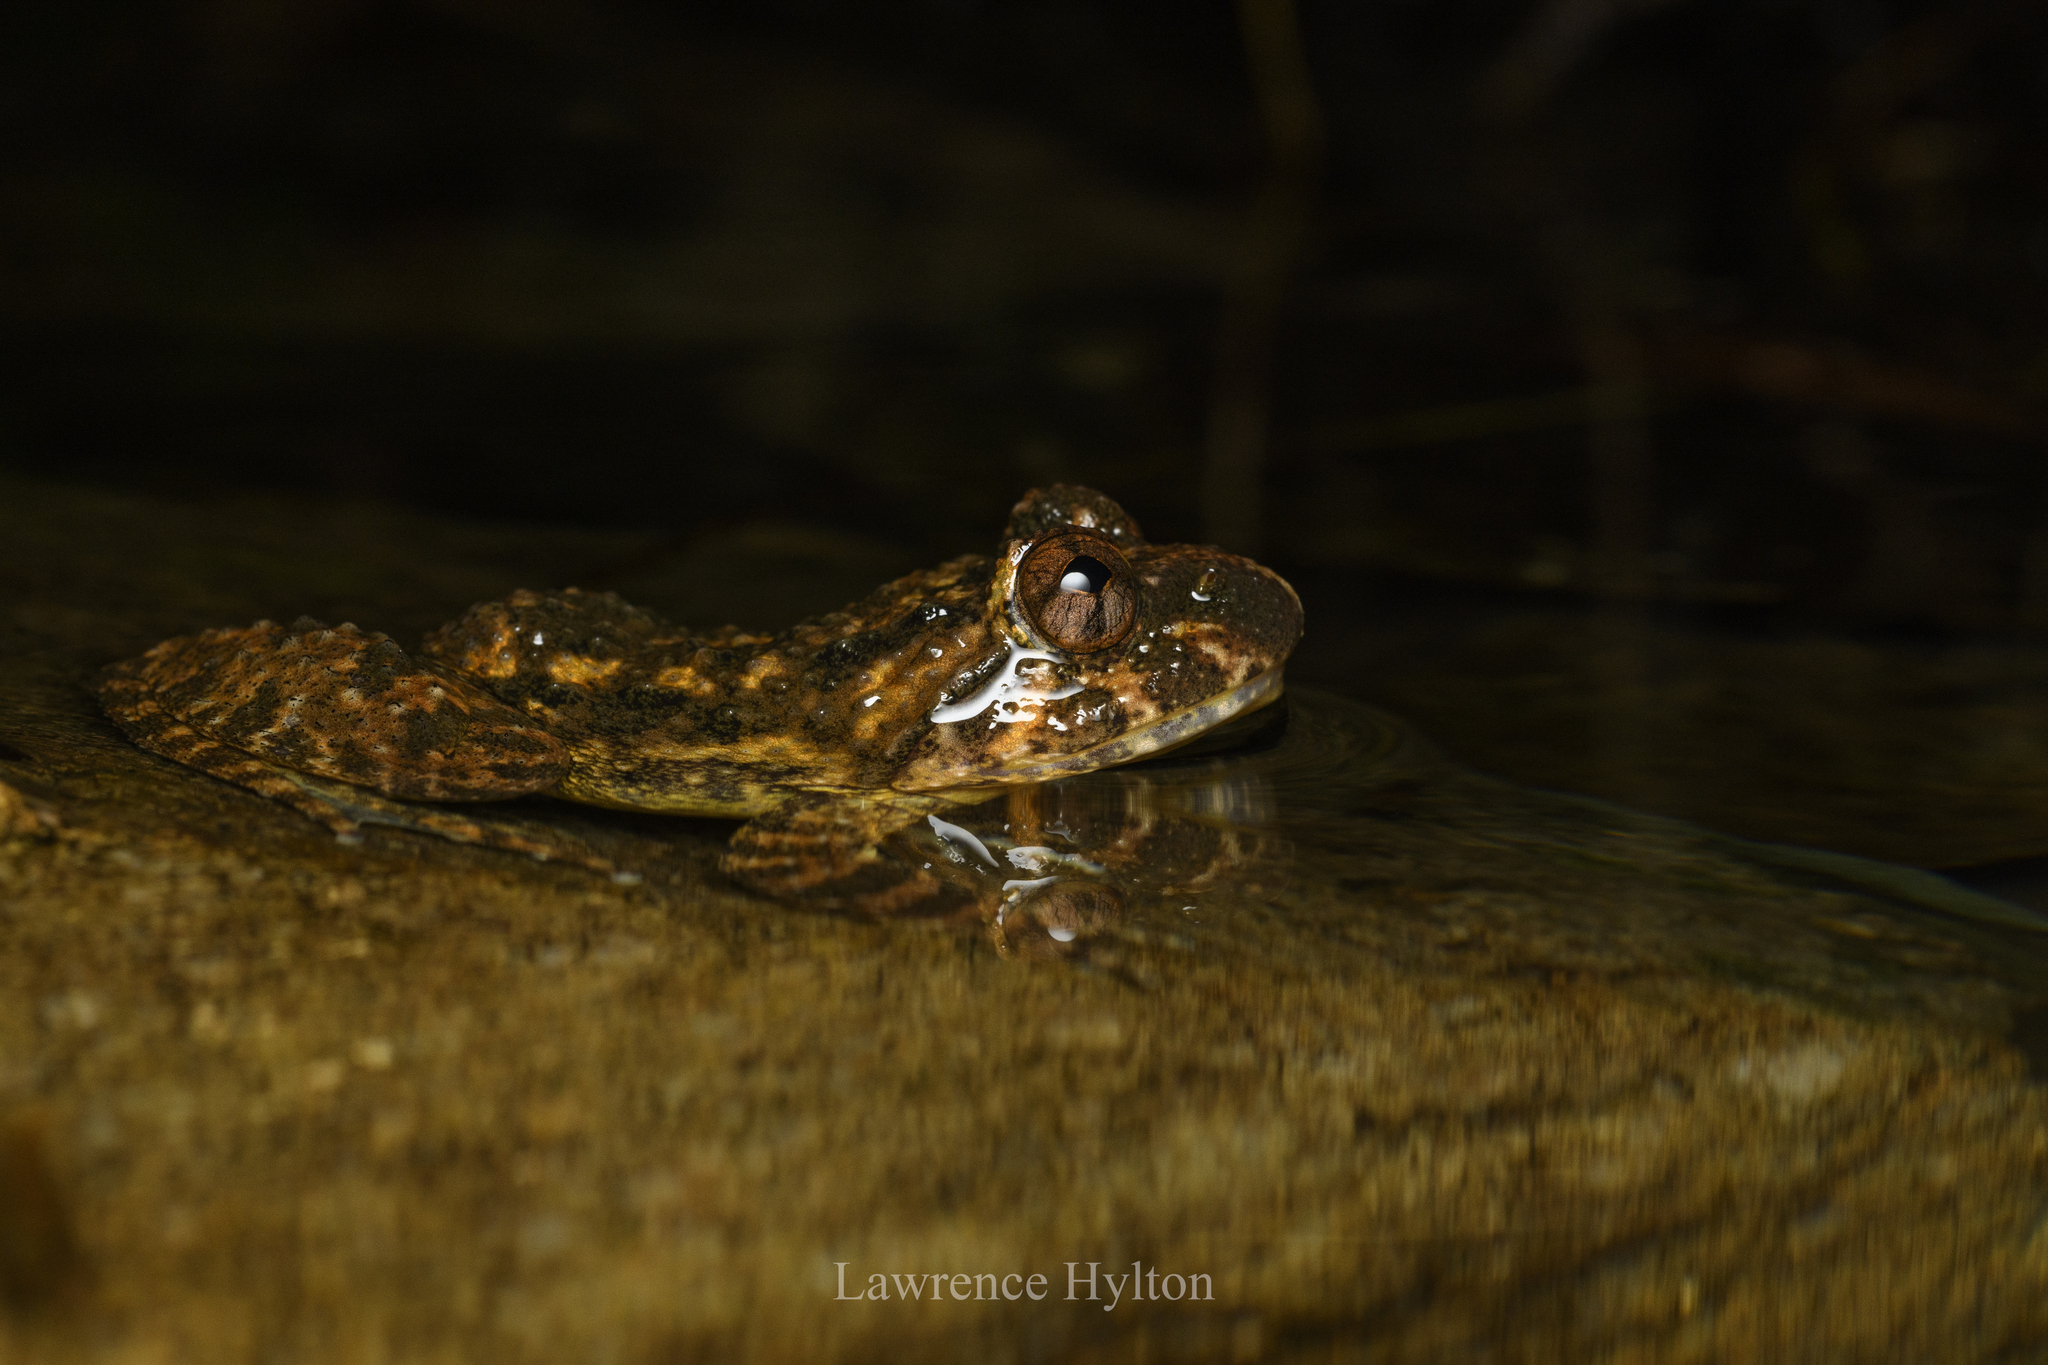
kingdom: Animalia
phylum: Chordata
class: Amphibia
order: Anura
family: Dicroglossidae
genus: Quasipaa
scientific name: Quasipaa exilispinosa
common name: Hong kong paa frog
